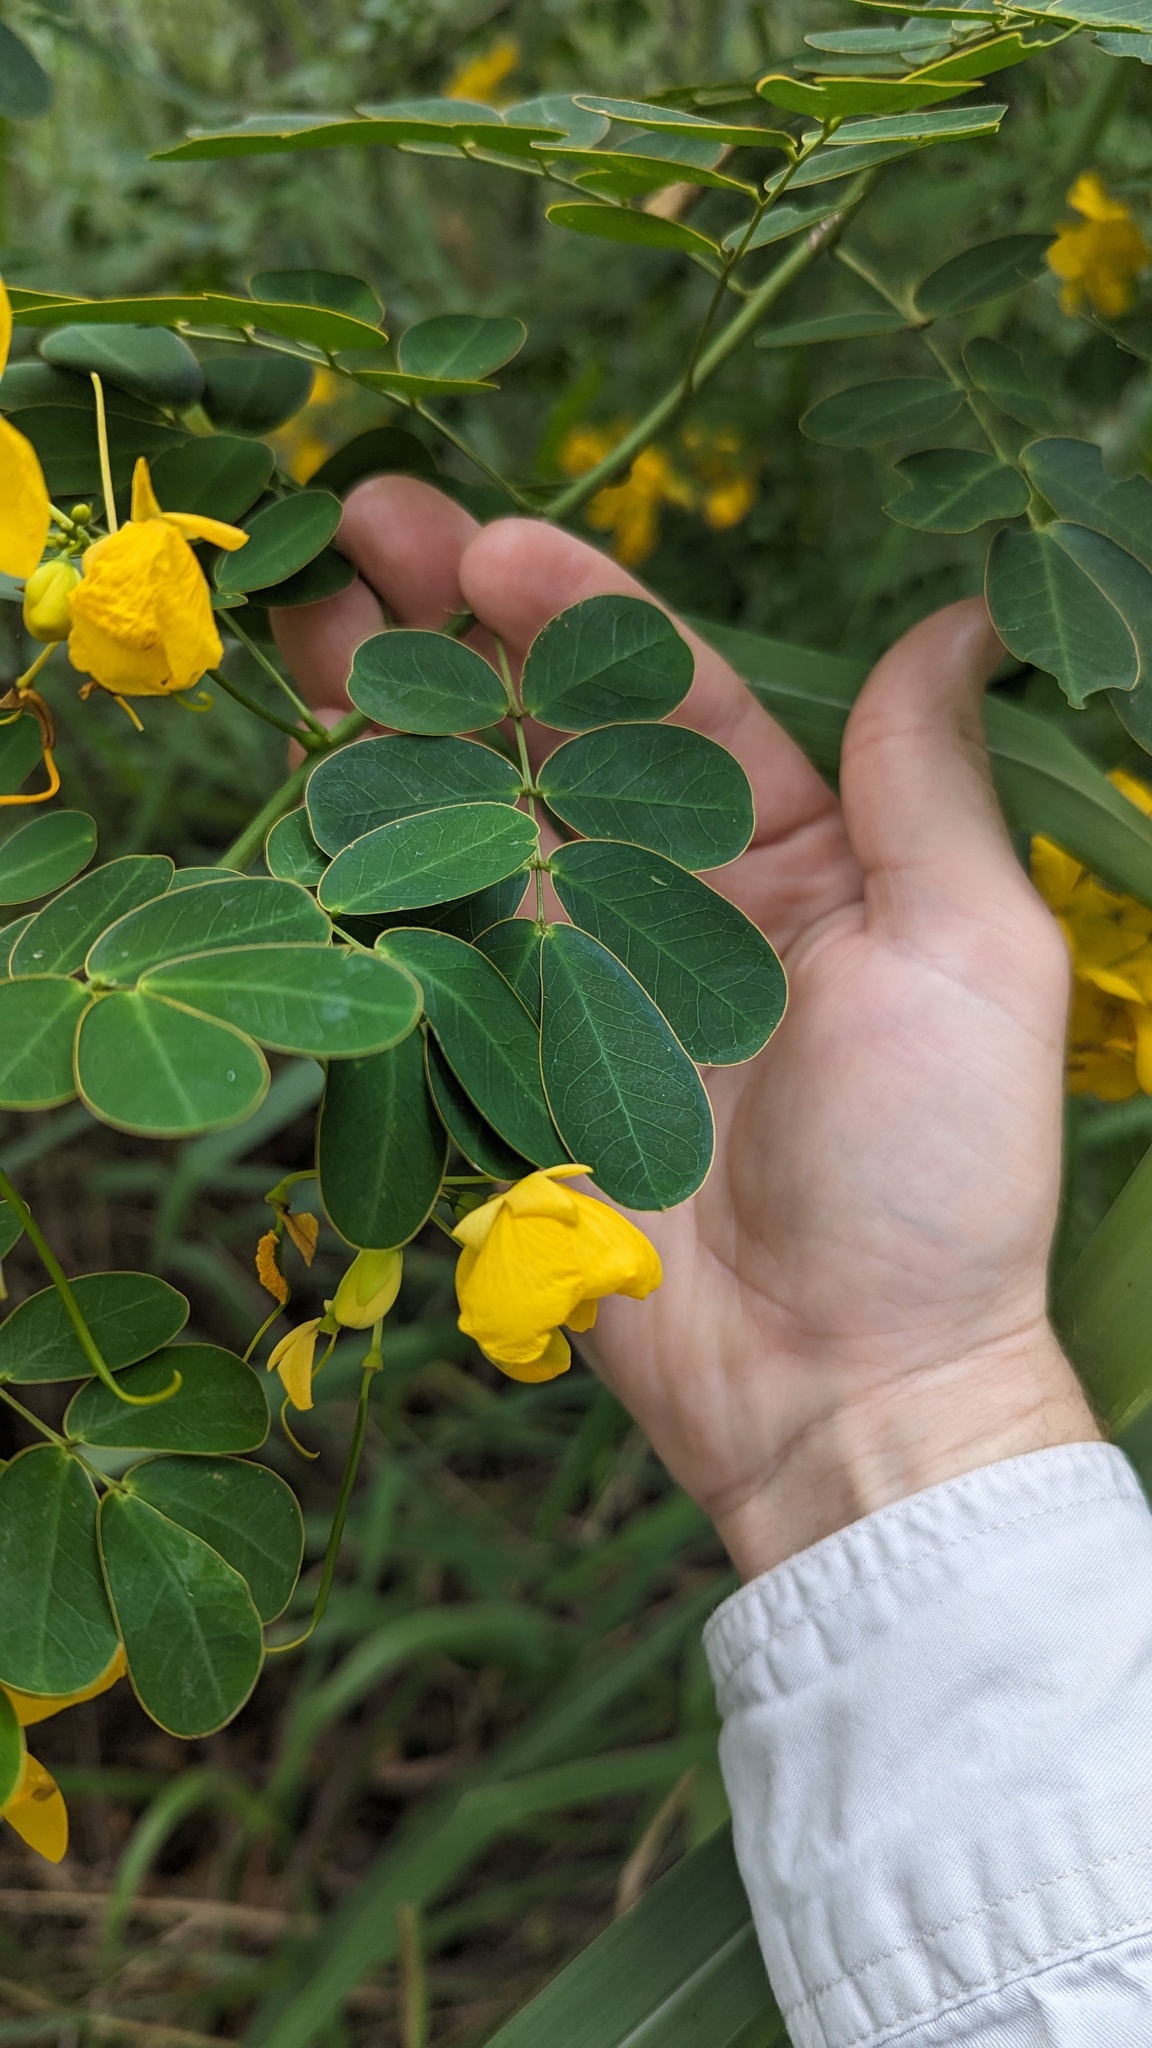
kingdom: Plantae
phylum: Tracheophyta
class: Magnoliopsida
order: Fabales
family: Fabaceae
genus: Senna
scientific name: Senna pendula
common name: Easter cassia
